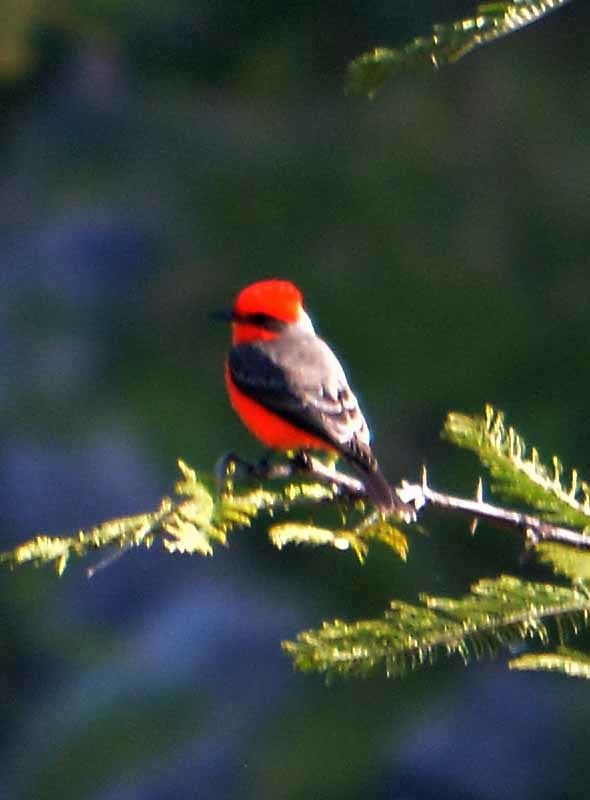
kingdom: Animalia
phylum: Chordata
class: Aves
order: Passeriformes
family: Tyrannidae
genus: Pyrocephalus
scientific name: Pyrocephalus rubinus
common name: Vermilion flycatcher
